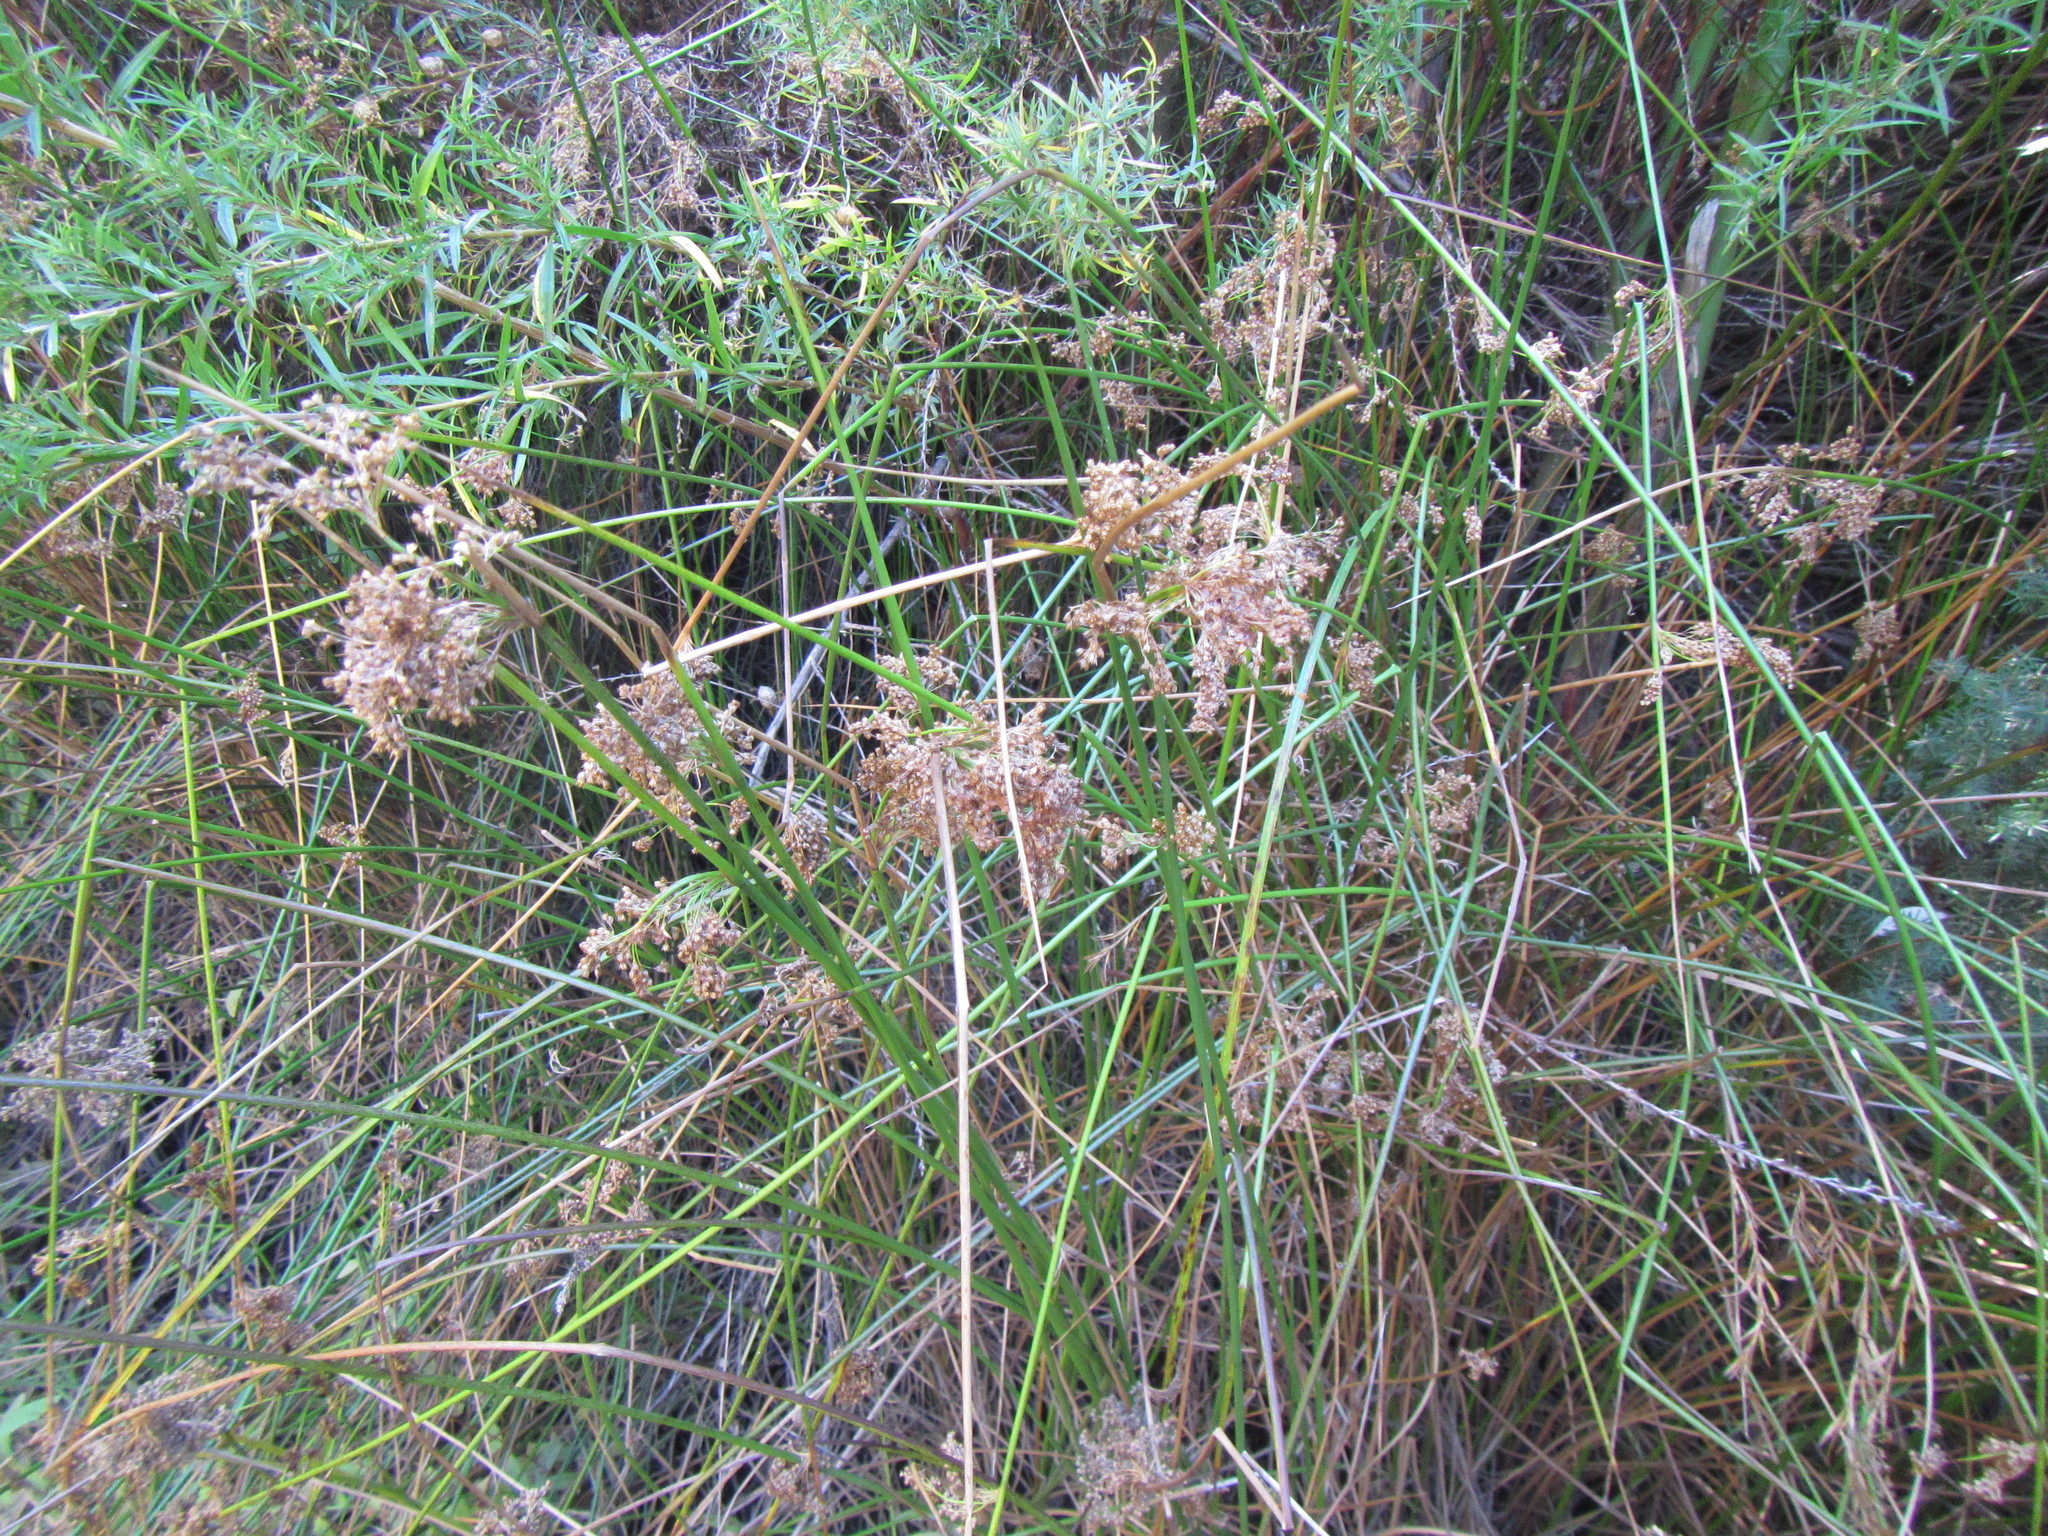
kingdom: Plantae
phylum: Tracheophyta
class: Liliopsida
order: Poales
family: Juncaceae
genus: Juncus
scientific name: Juncus effusus
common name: Soft rush
